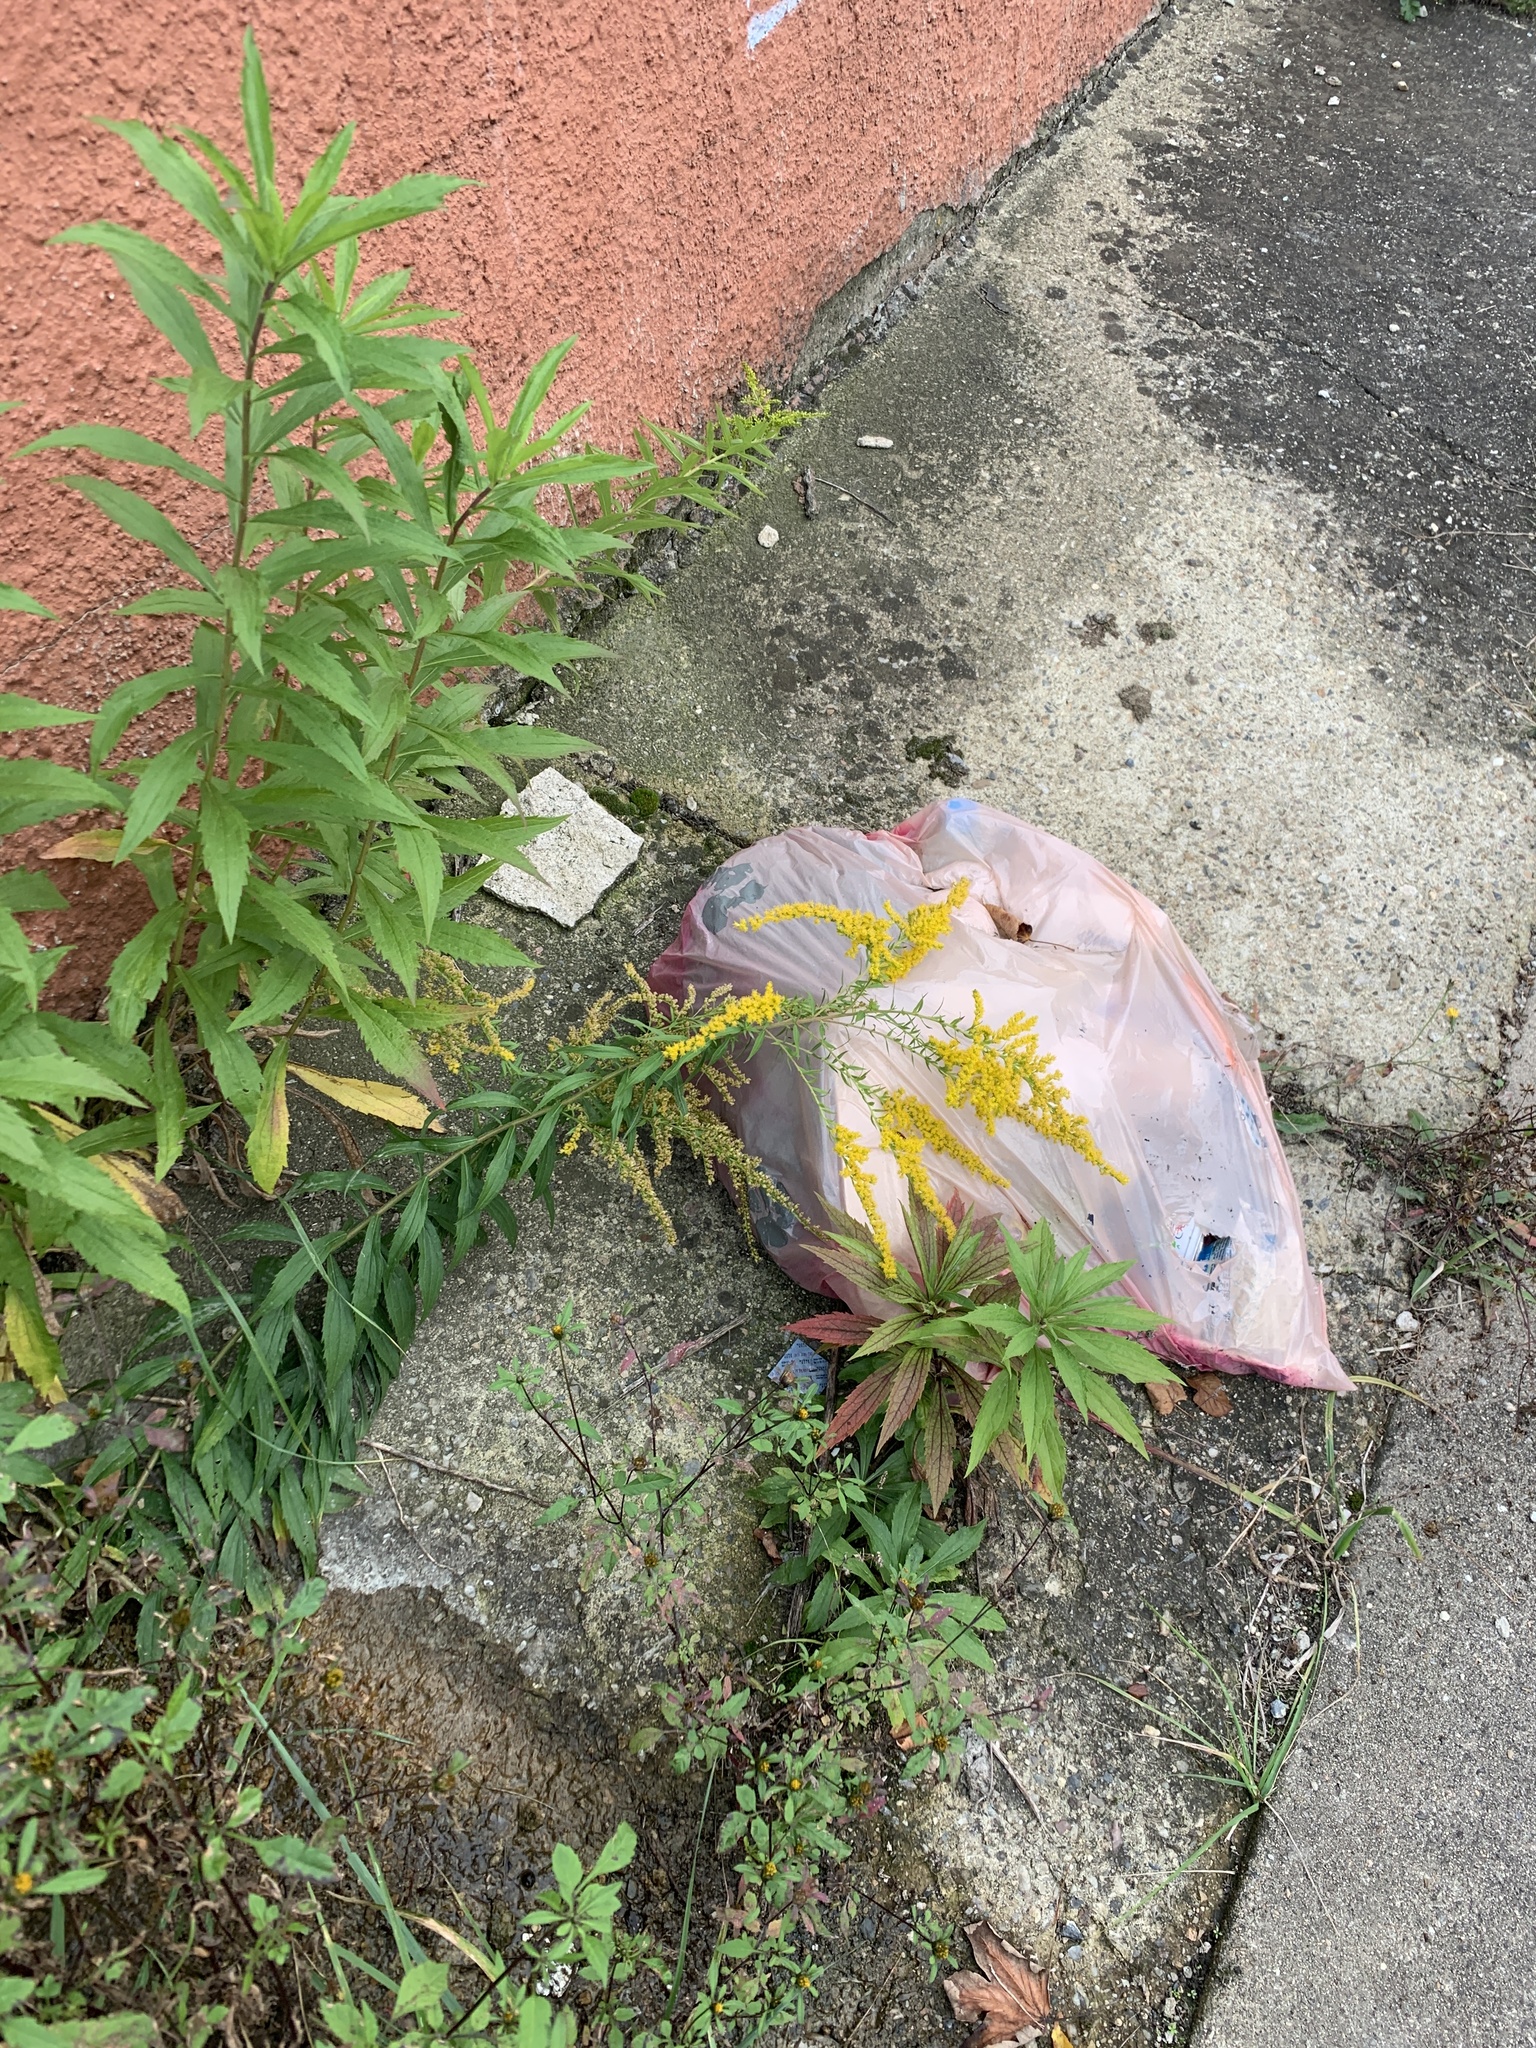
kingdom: Plantae
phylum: Tracheophyta
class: Magnoliopsida
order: Asterales
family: Asteraceae
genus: Solidago
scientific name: Solidago canadensis
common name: Canada goldenrod
